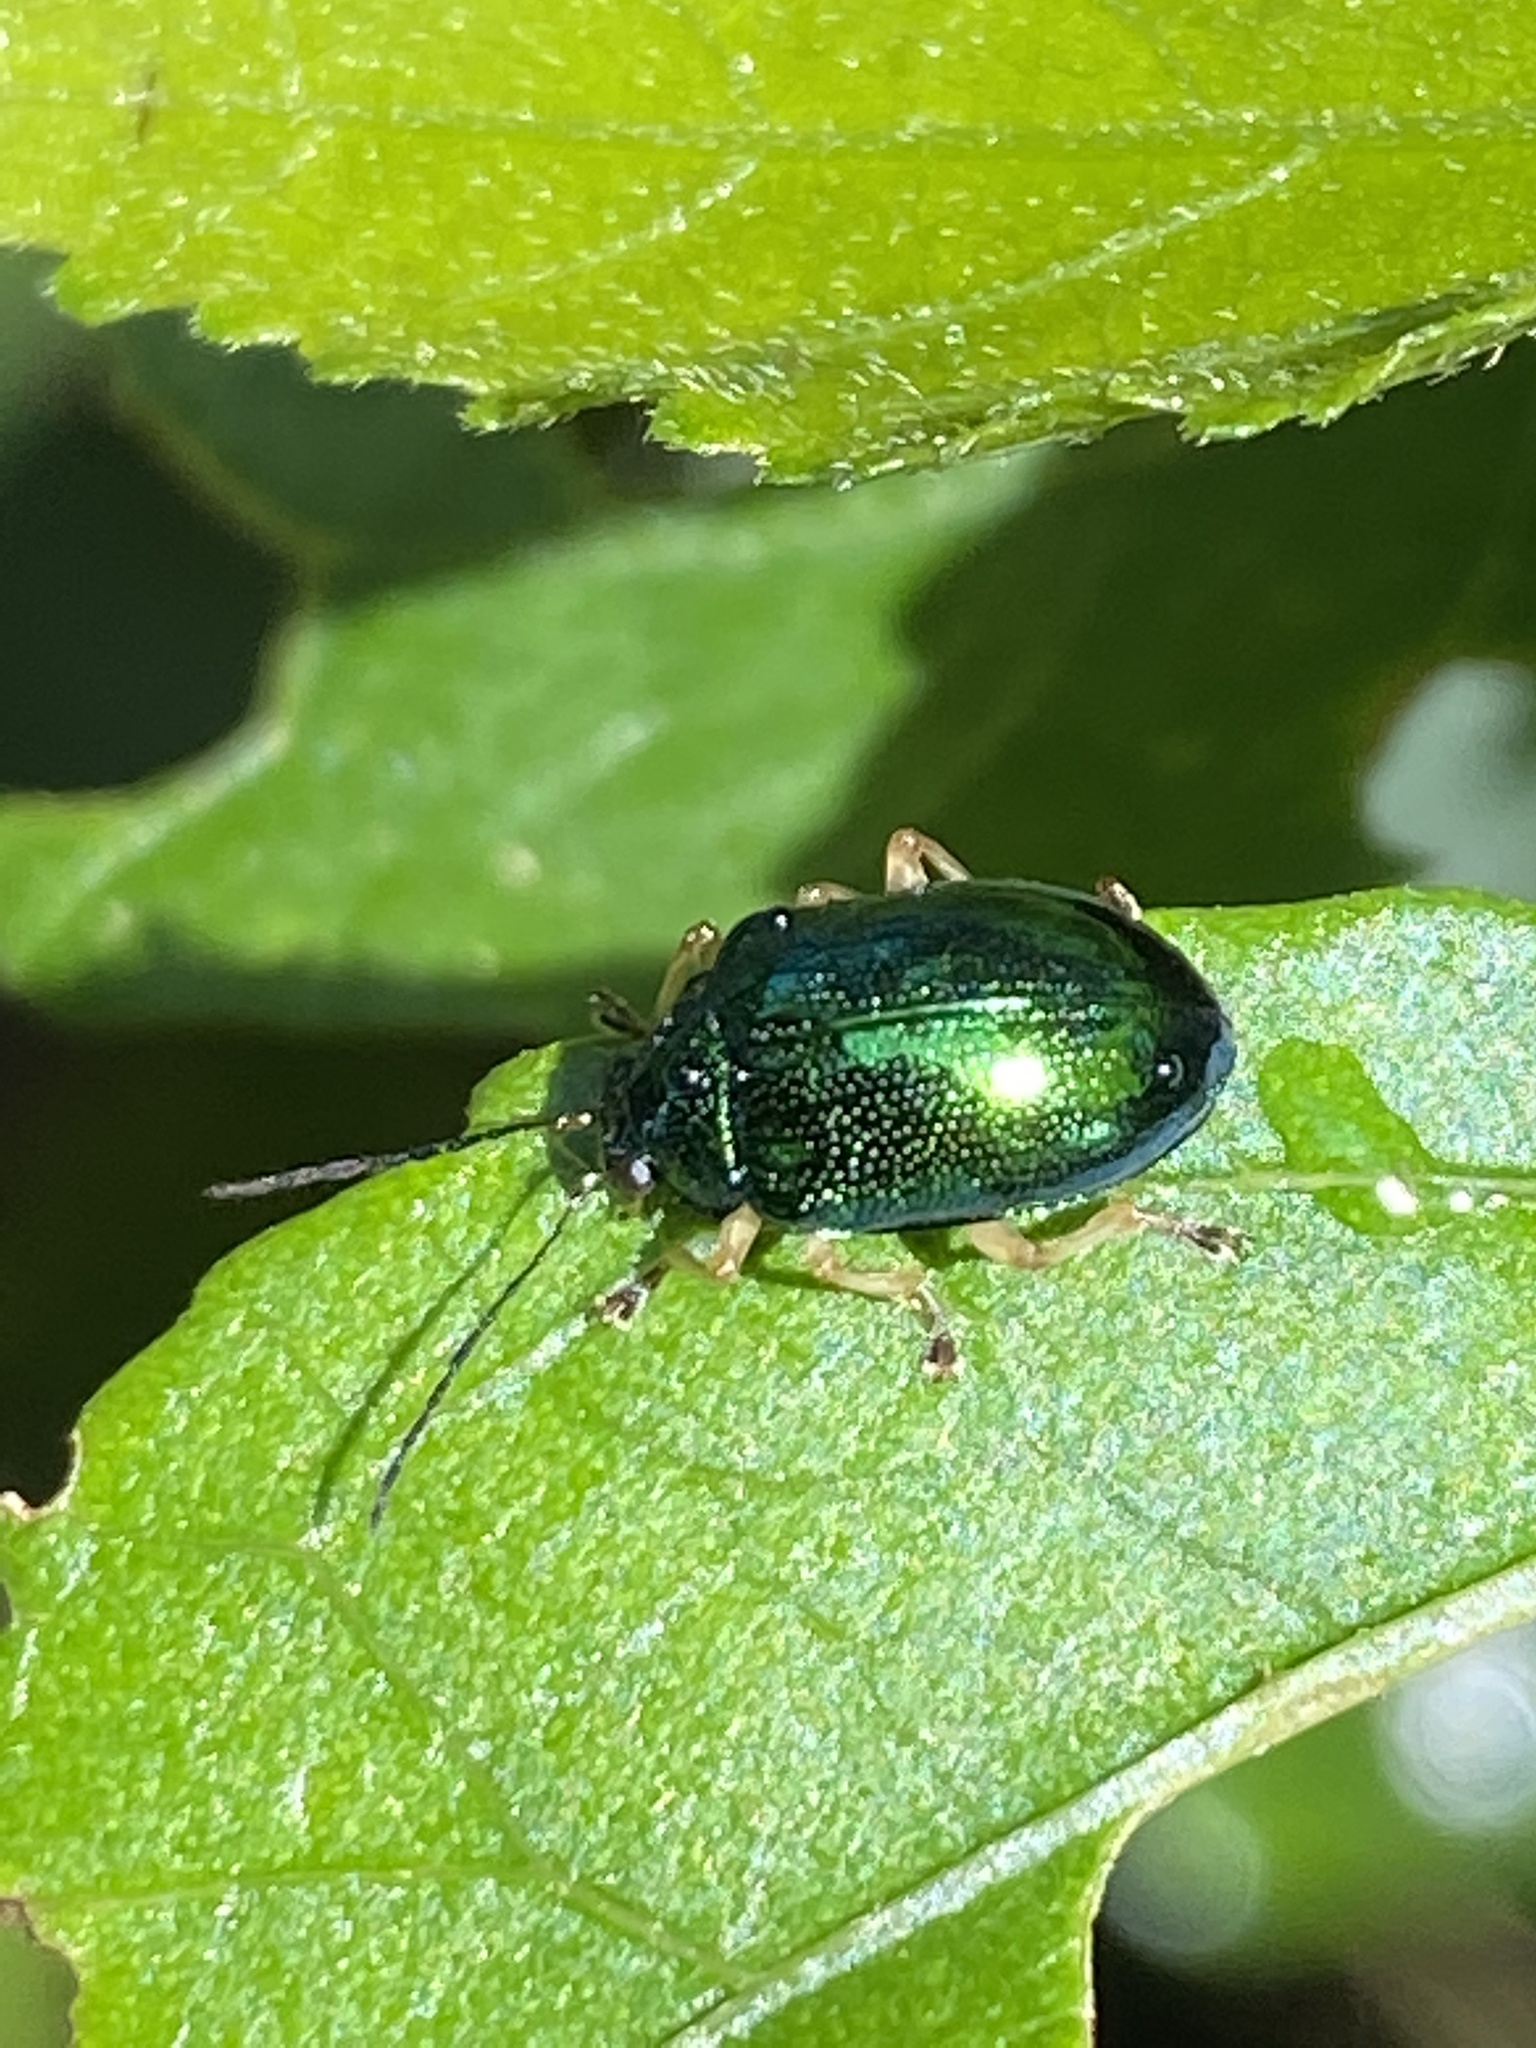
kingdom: Animalia
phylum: Arthropoda
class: Insecta
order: Coleoptera
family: Chrysomelidae
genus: Colaspis
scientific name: Colaspis
